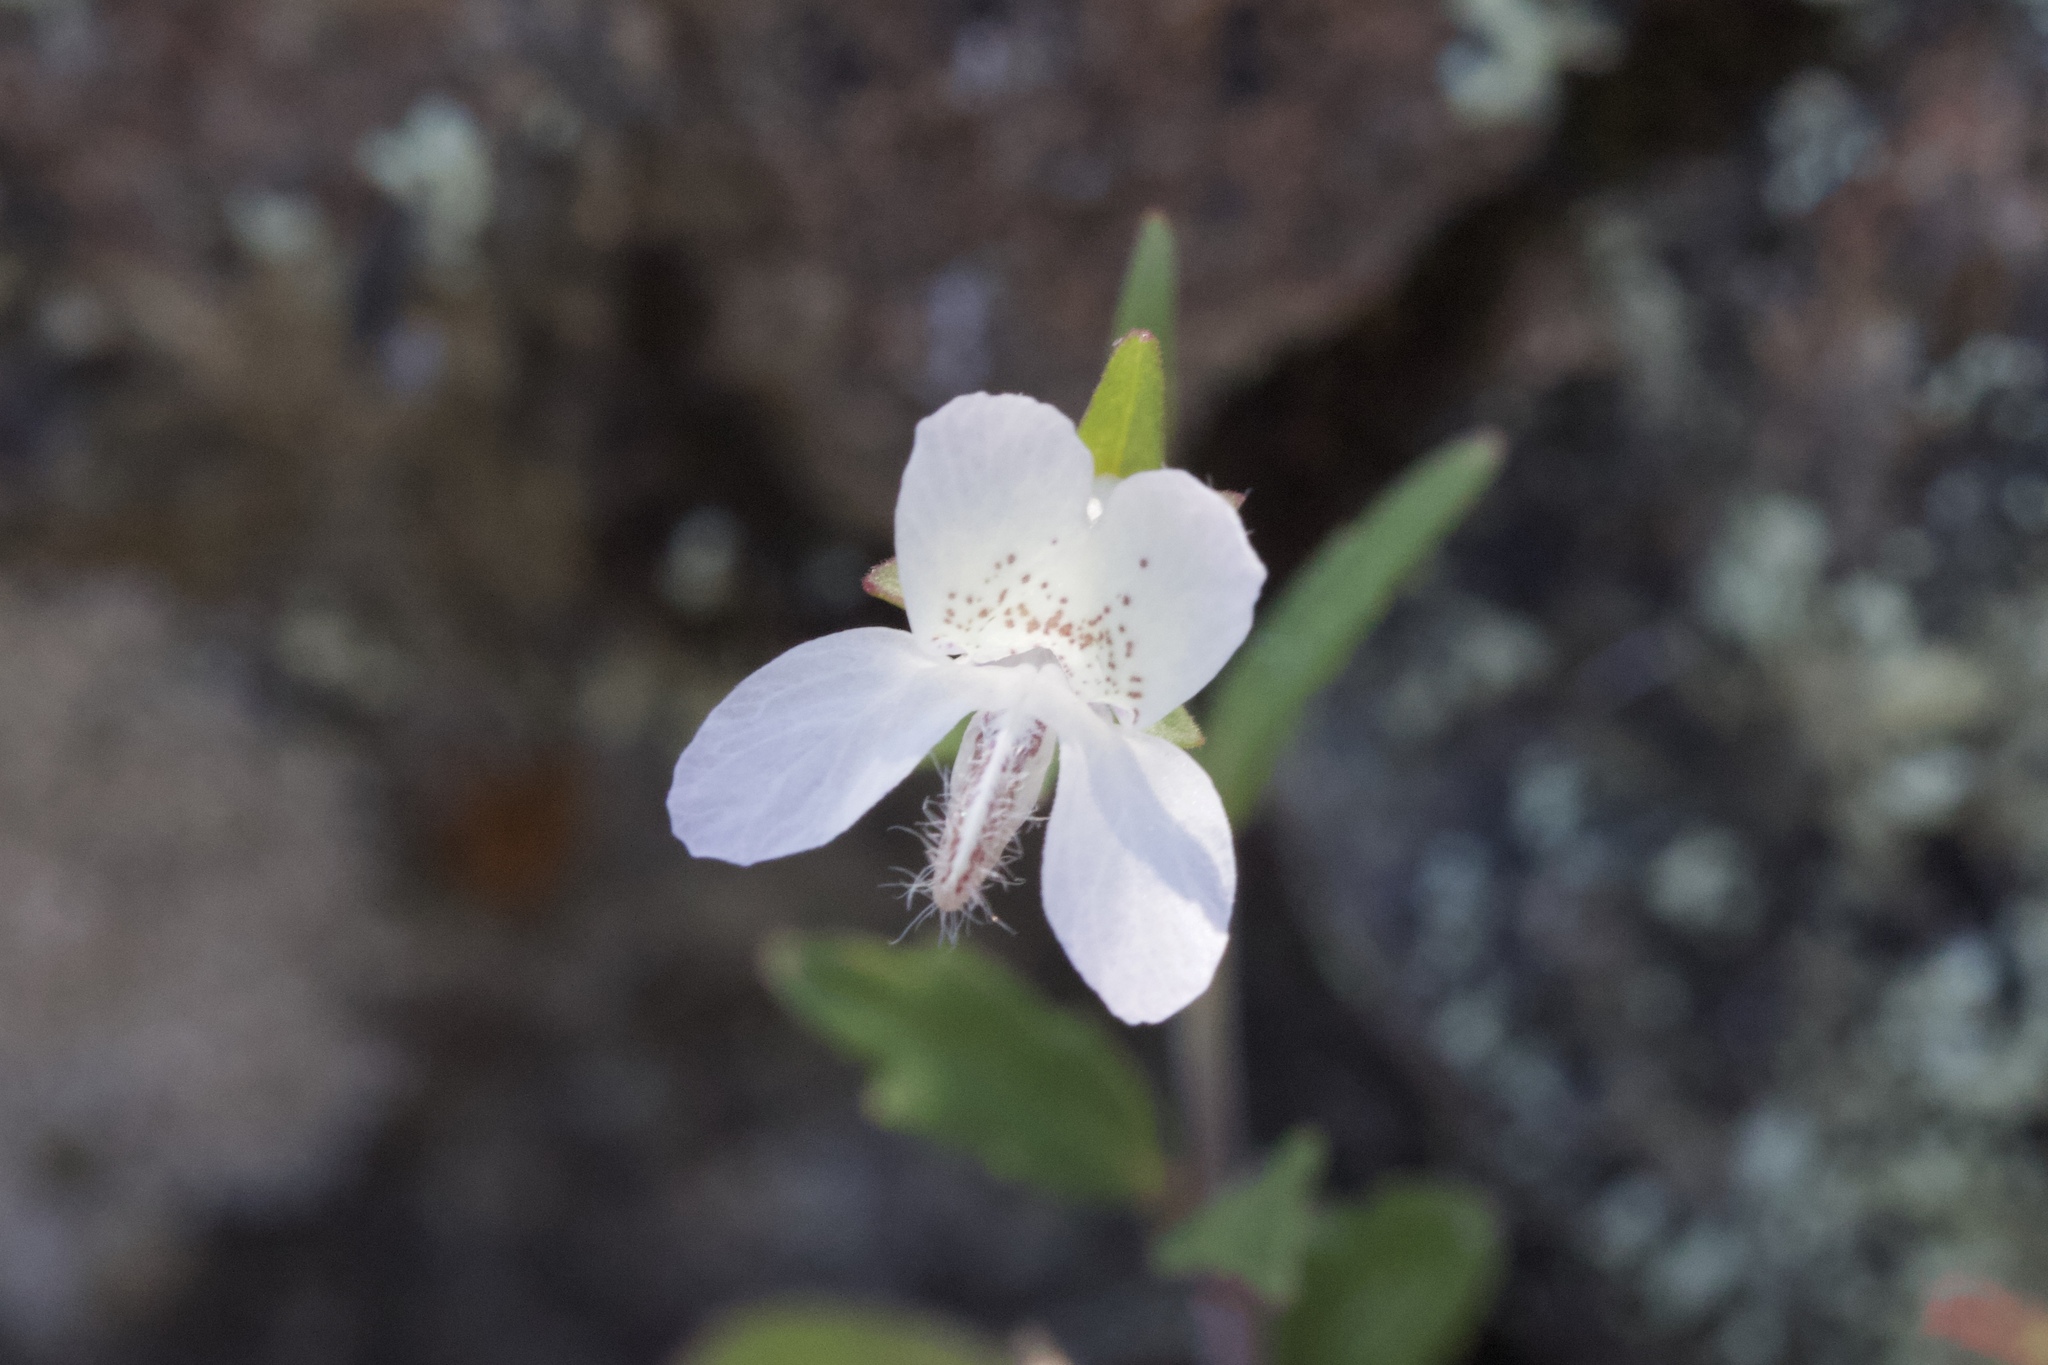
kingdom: Plantae
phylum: Tracheophyta
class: Magnoliopsida
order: Lamiales
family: Plantaginaceae
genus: Collinsia
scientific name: Collinsia sparsiflora
